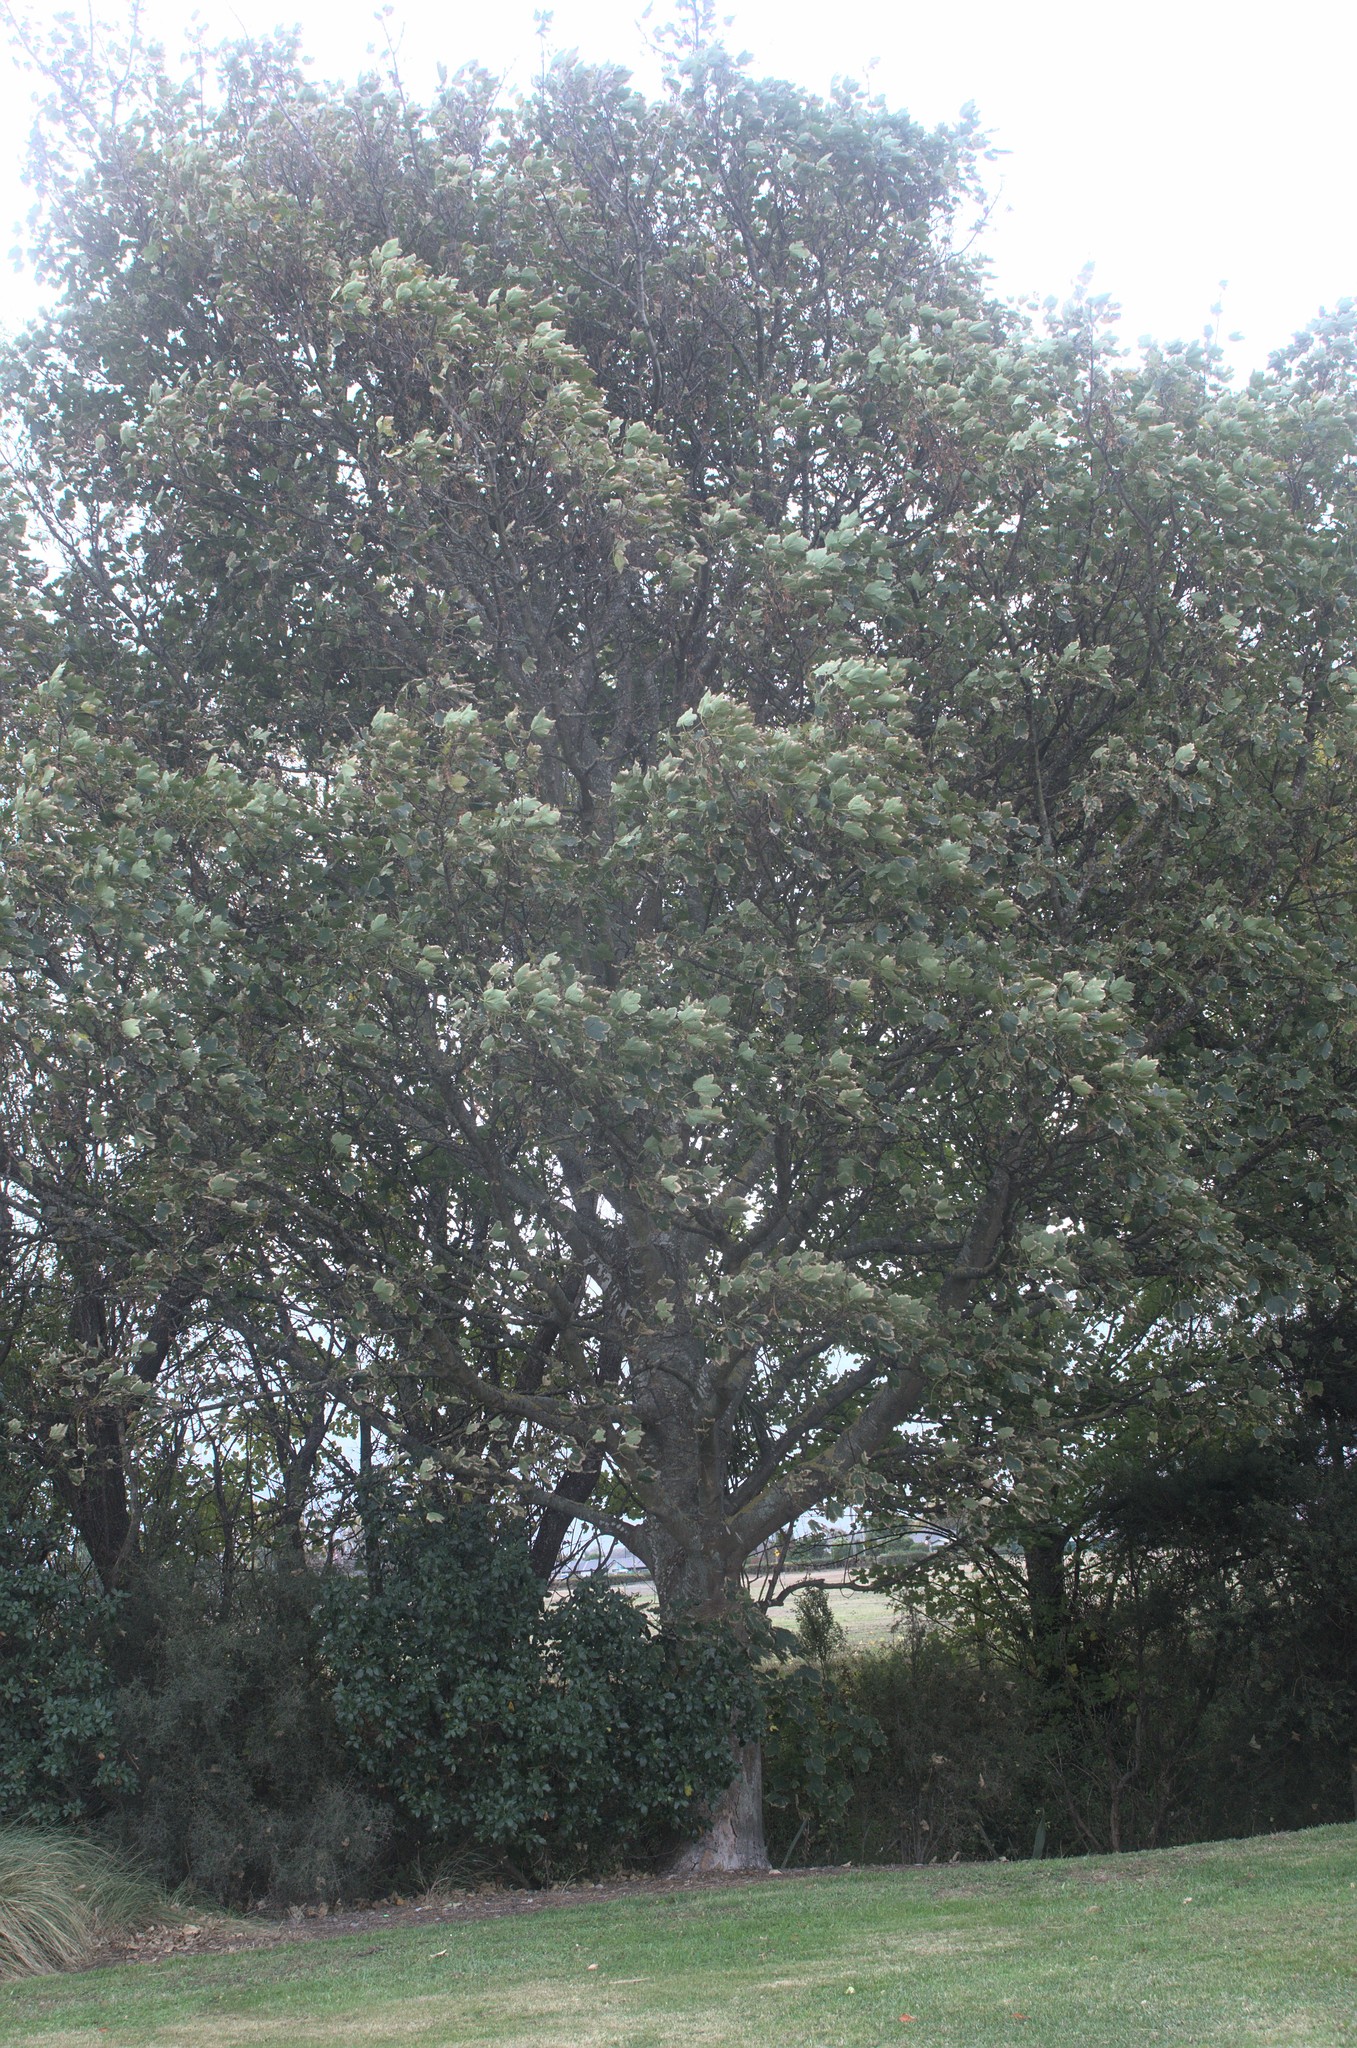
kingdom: Plantae
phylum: Tracheophyta
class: Magnoliopsida
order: Sapindales
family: Sapindaceae
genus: Acer
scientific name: Acer pseudoplatanus
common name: Sycamore
